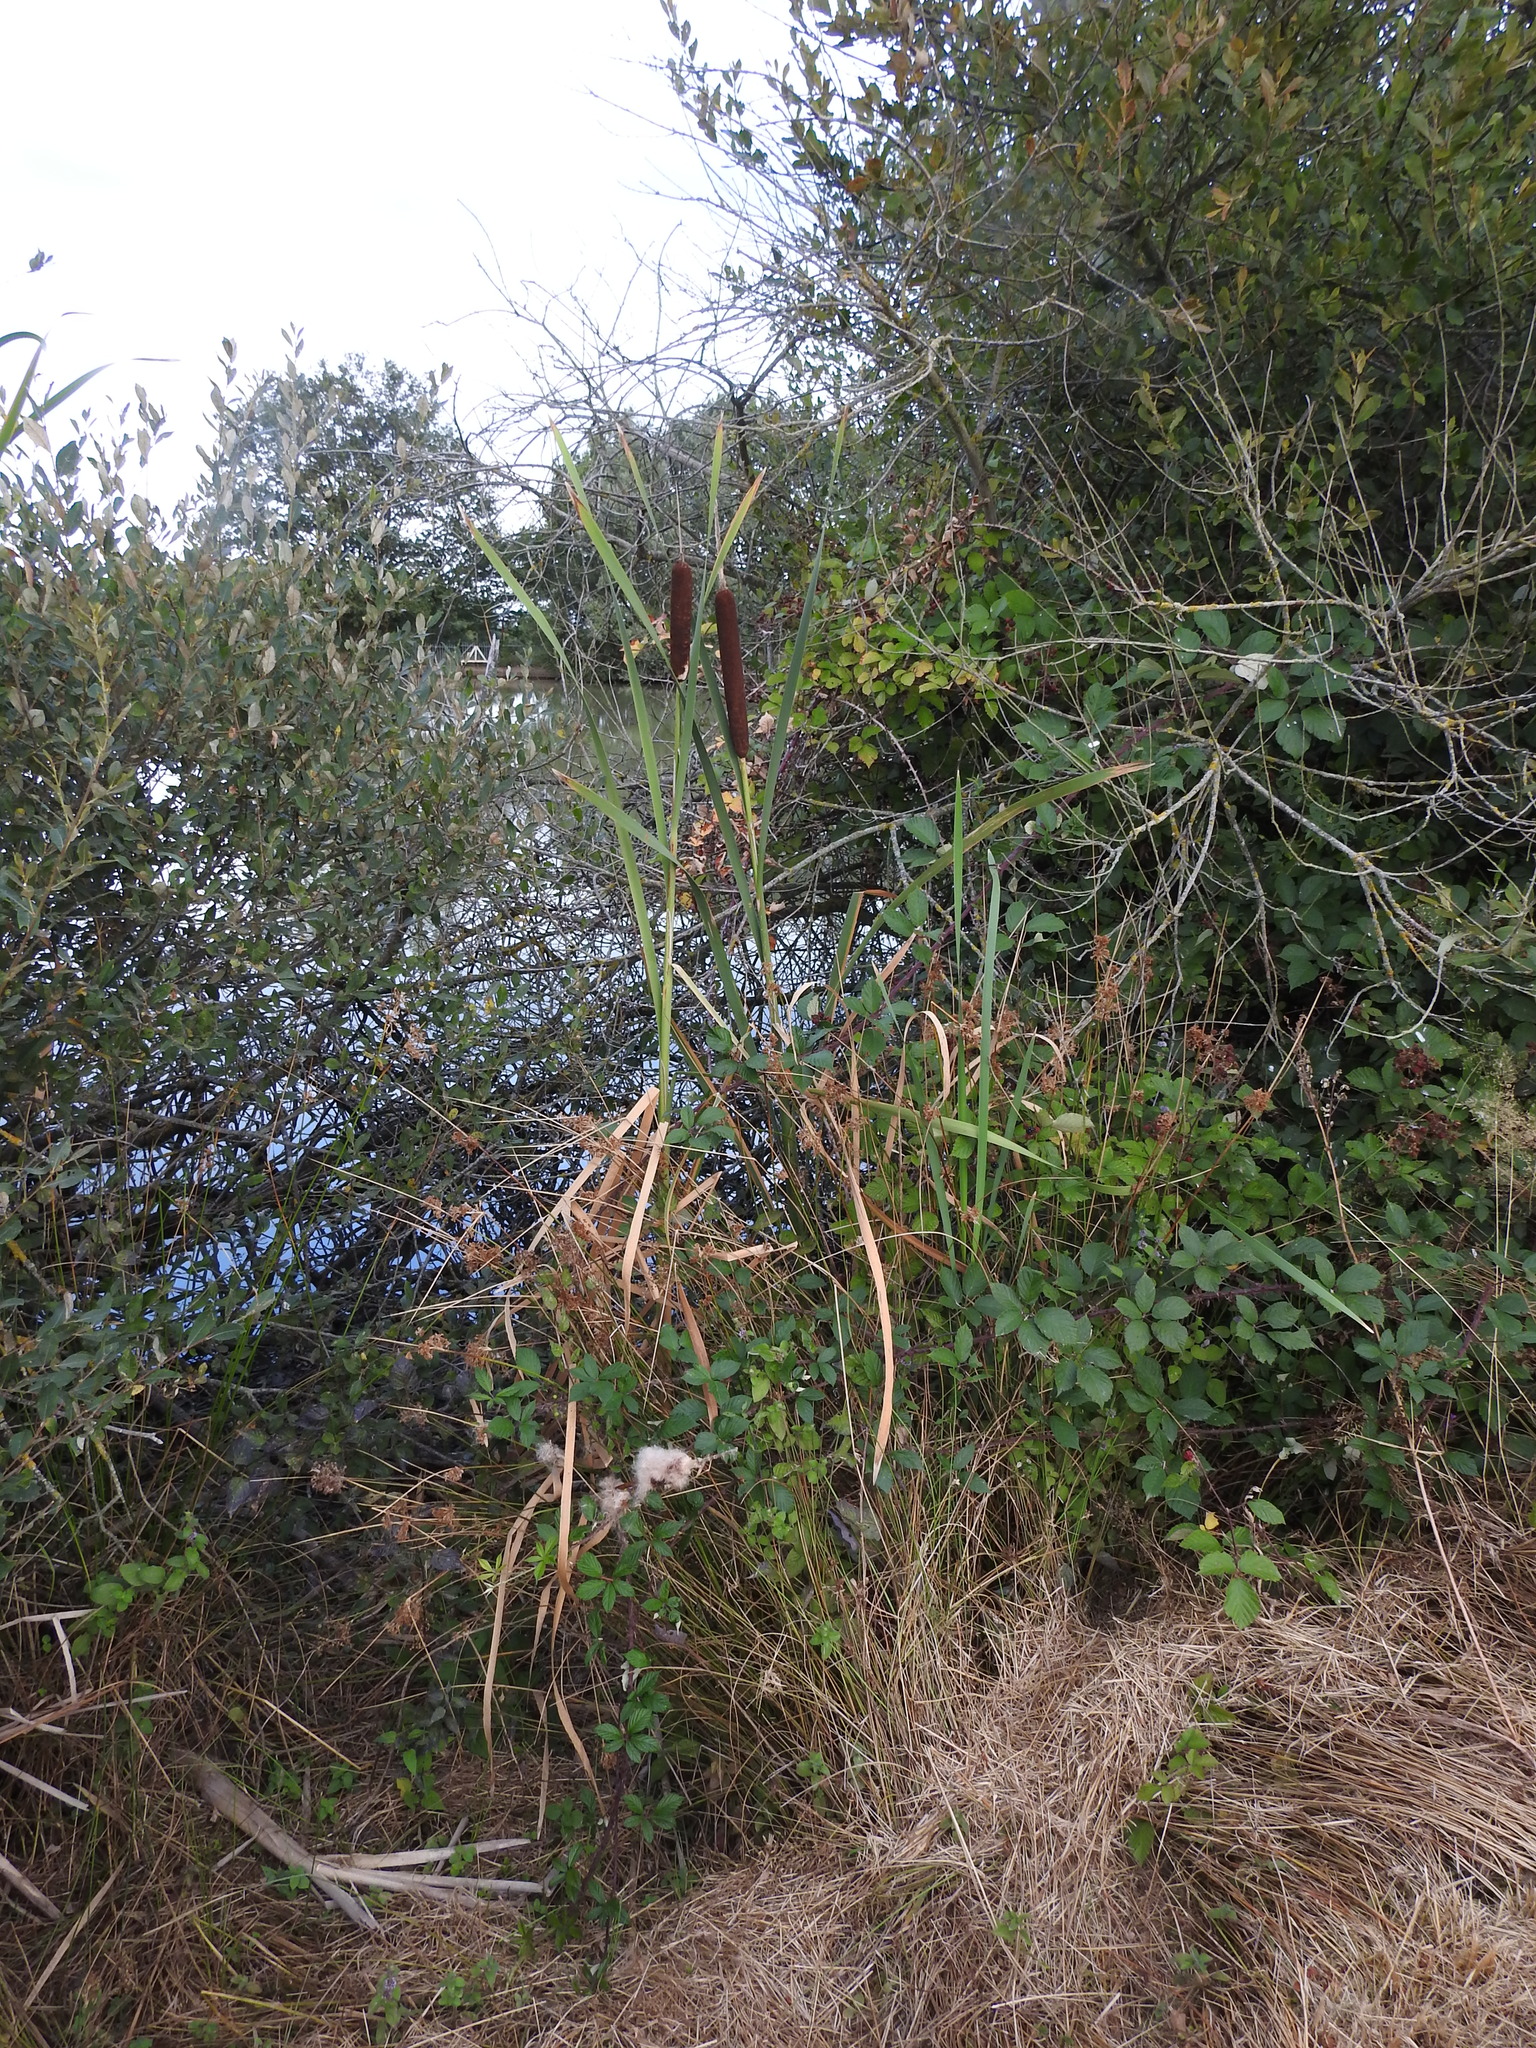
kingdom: Plantae
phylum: Tracheophyta
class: Liliopsida
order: Poales
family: Typhaceae
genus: Typha
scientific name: Typha latifolia
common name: Broadleaf cattail
